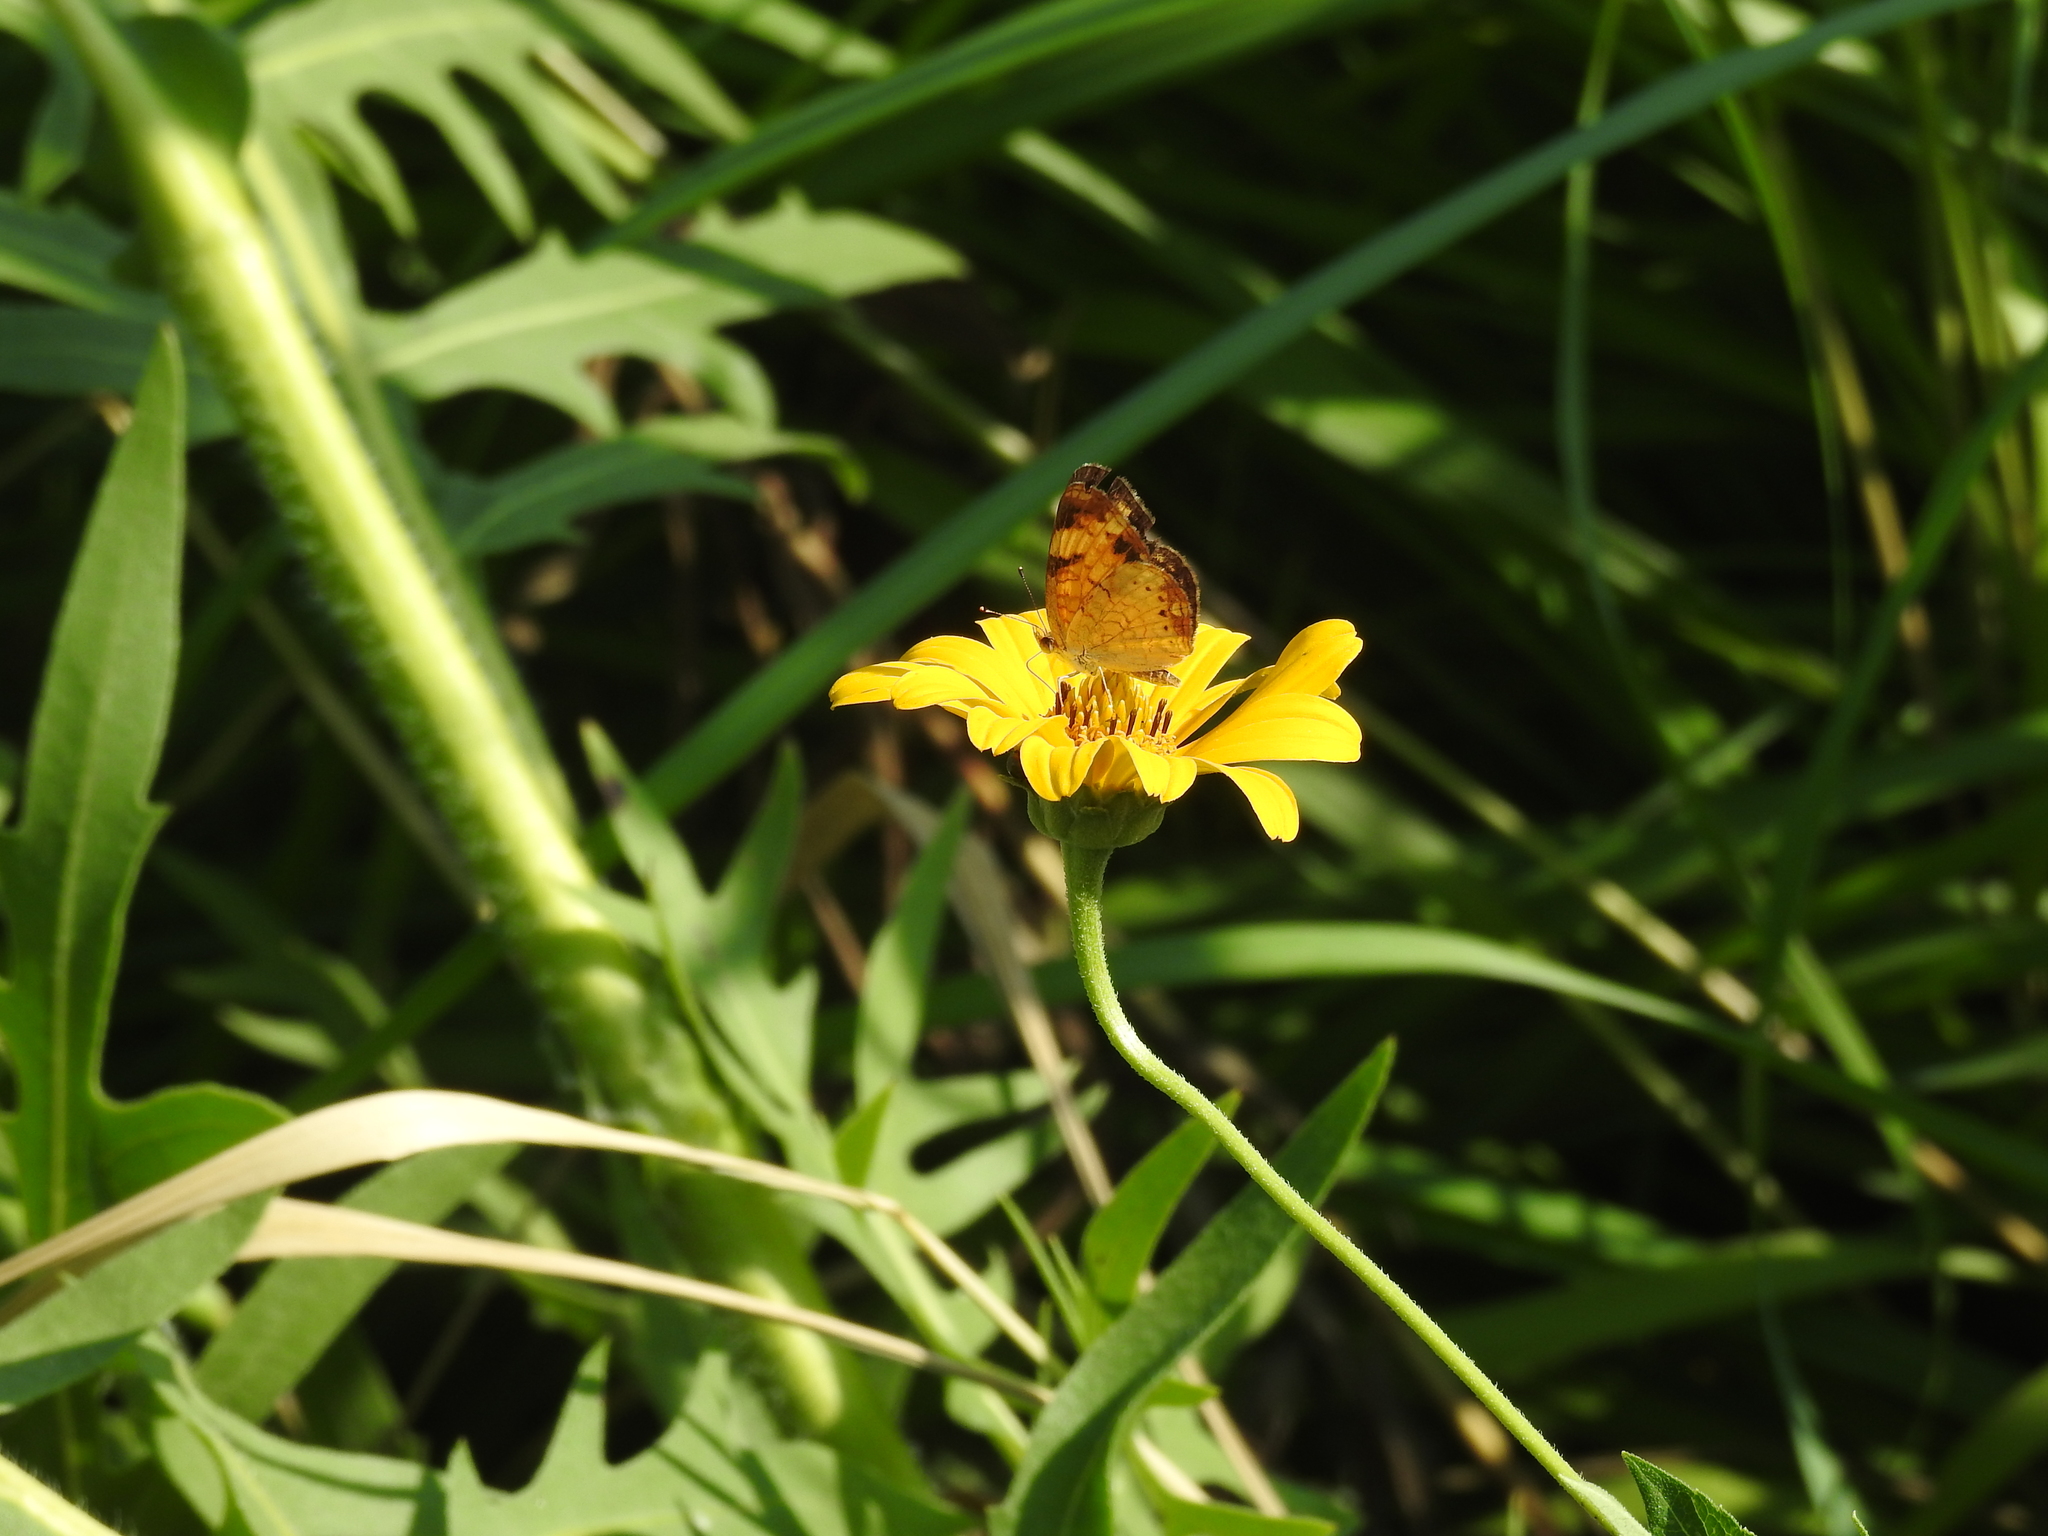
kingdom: Animalia
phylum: Arthropoda
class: Insecta
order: Lepidoptera
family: Nymphalidae
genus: Phyciodes
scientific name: Phyciodes tharos
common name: Pearl crescent
